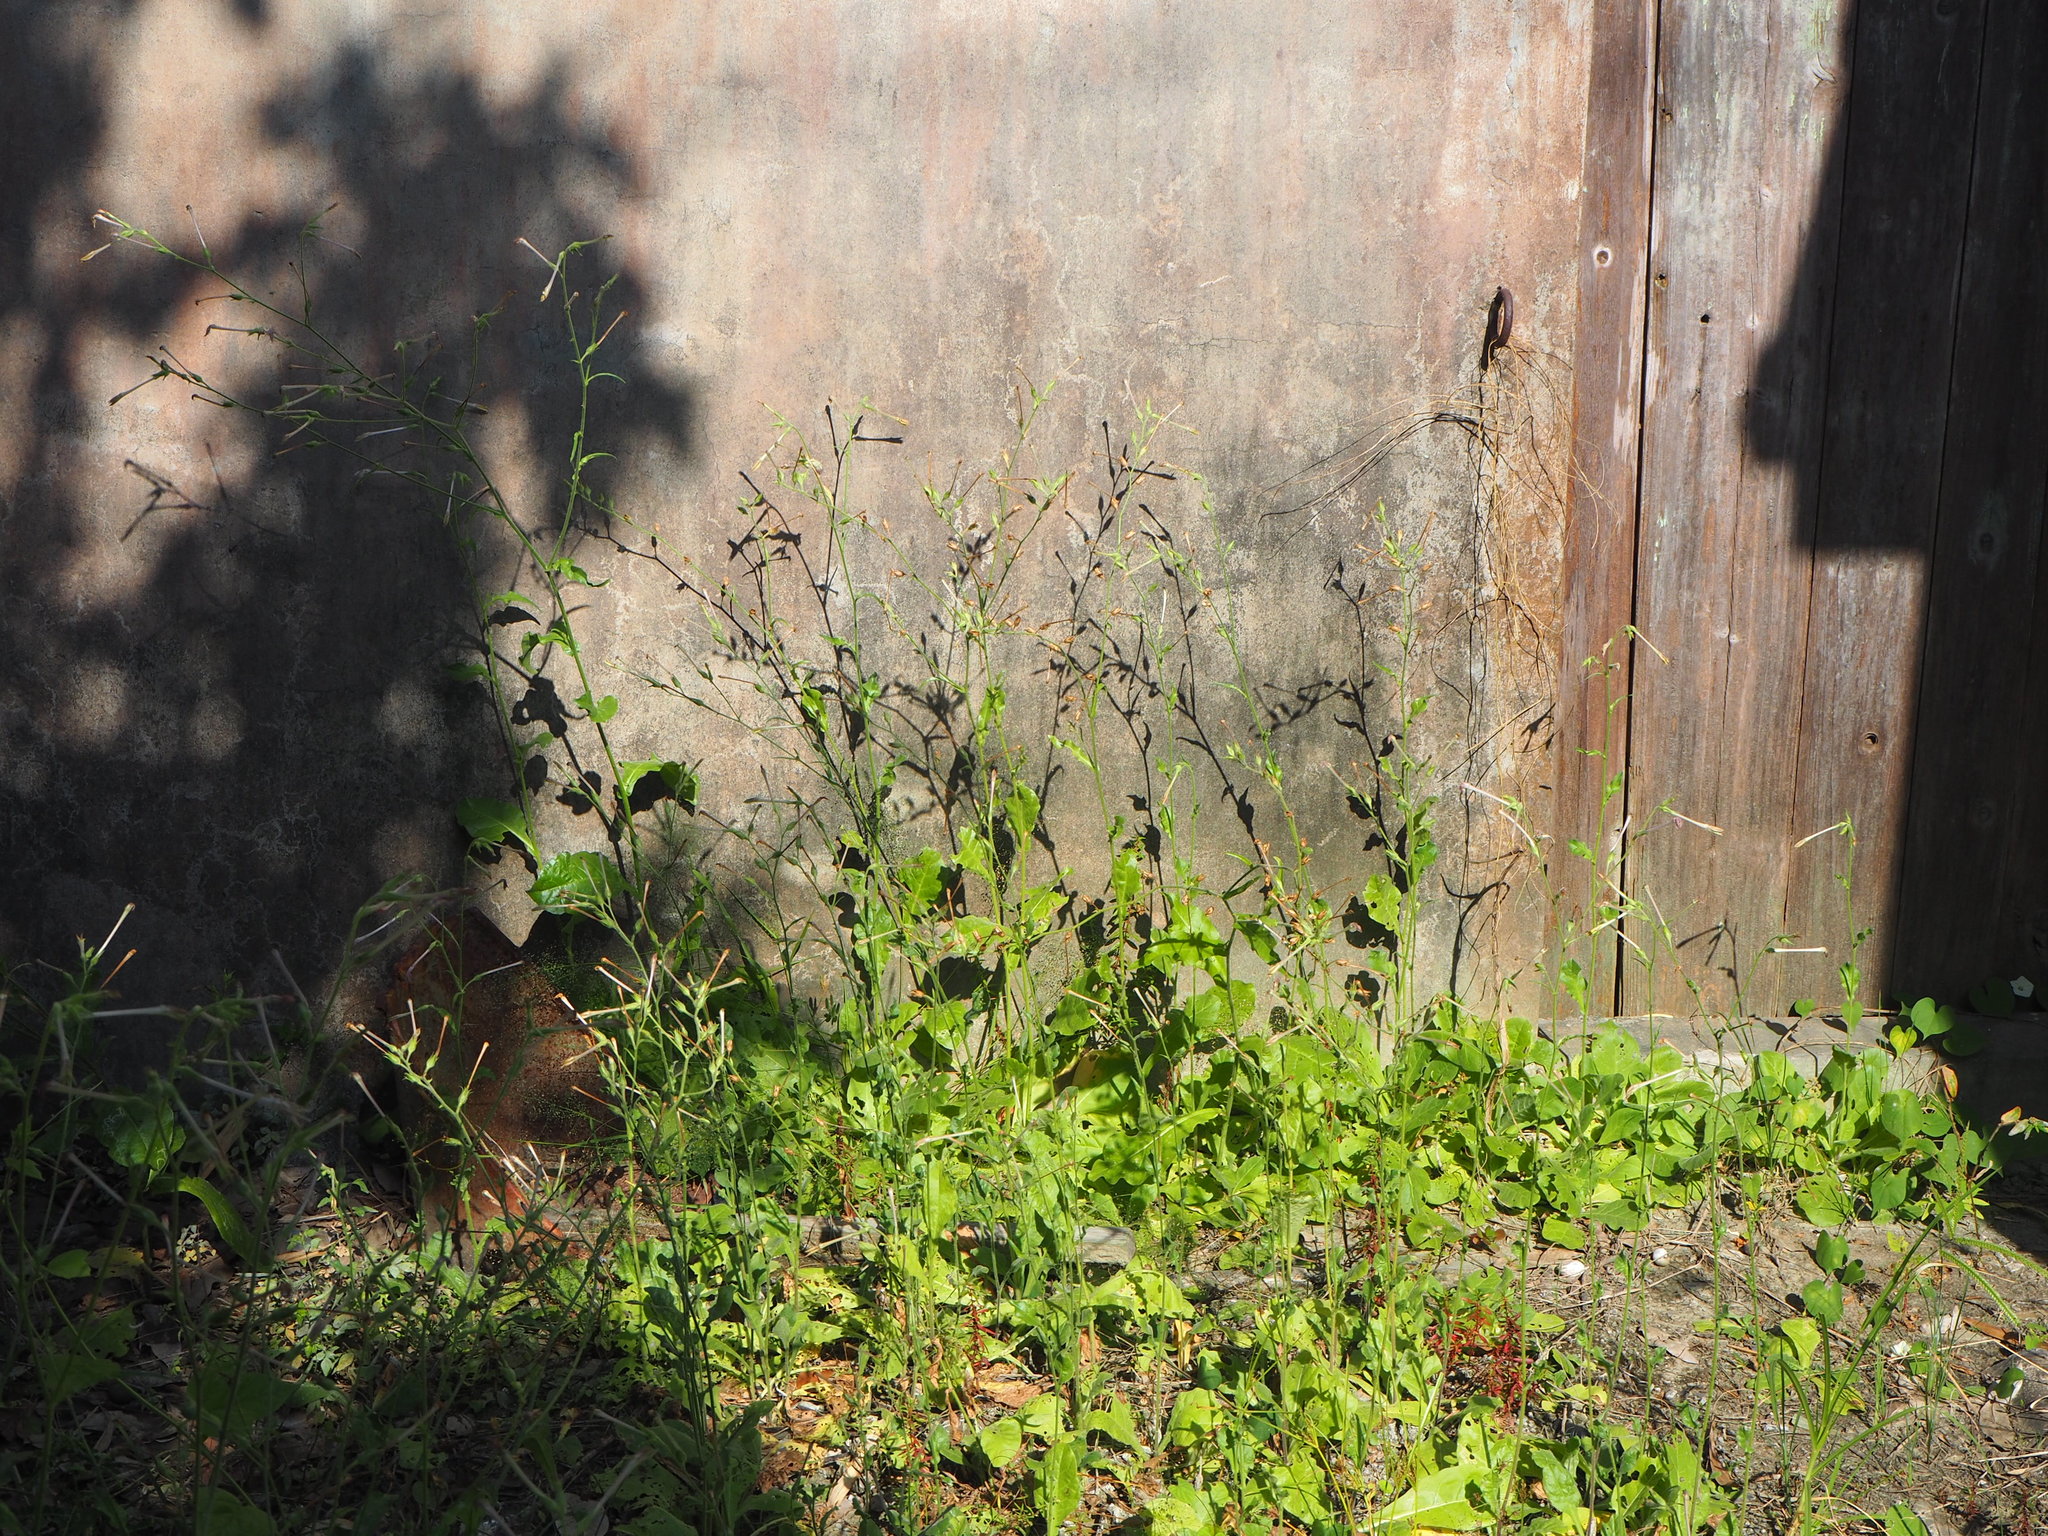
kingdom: Plantae
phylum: Tracheophyta
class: Magnoliopsida
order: Solanales
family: Solanaceae
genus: Nicotiana
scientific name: Nicotiana plumbaginifolia
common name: Tex-mex tobacco
